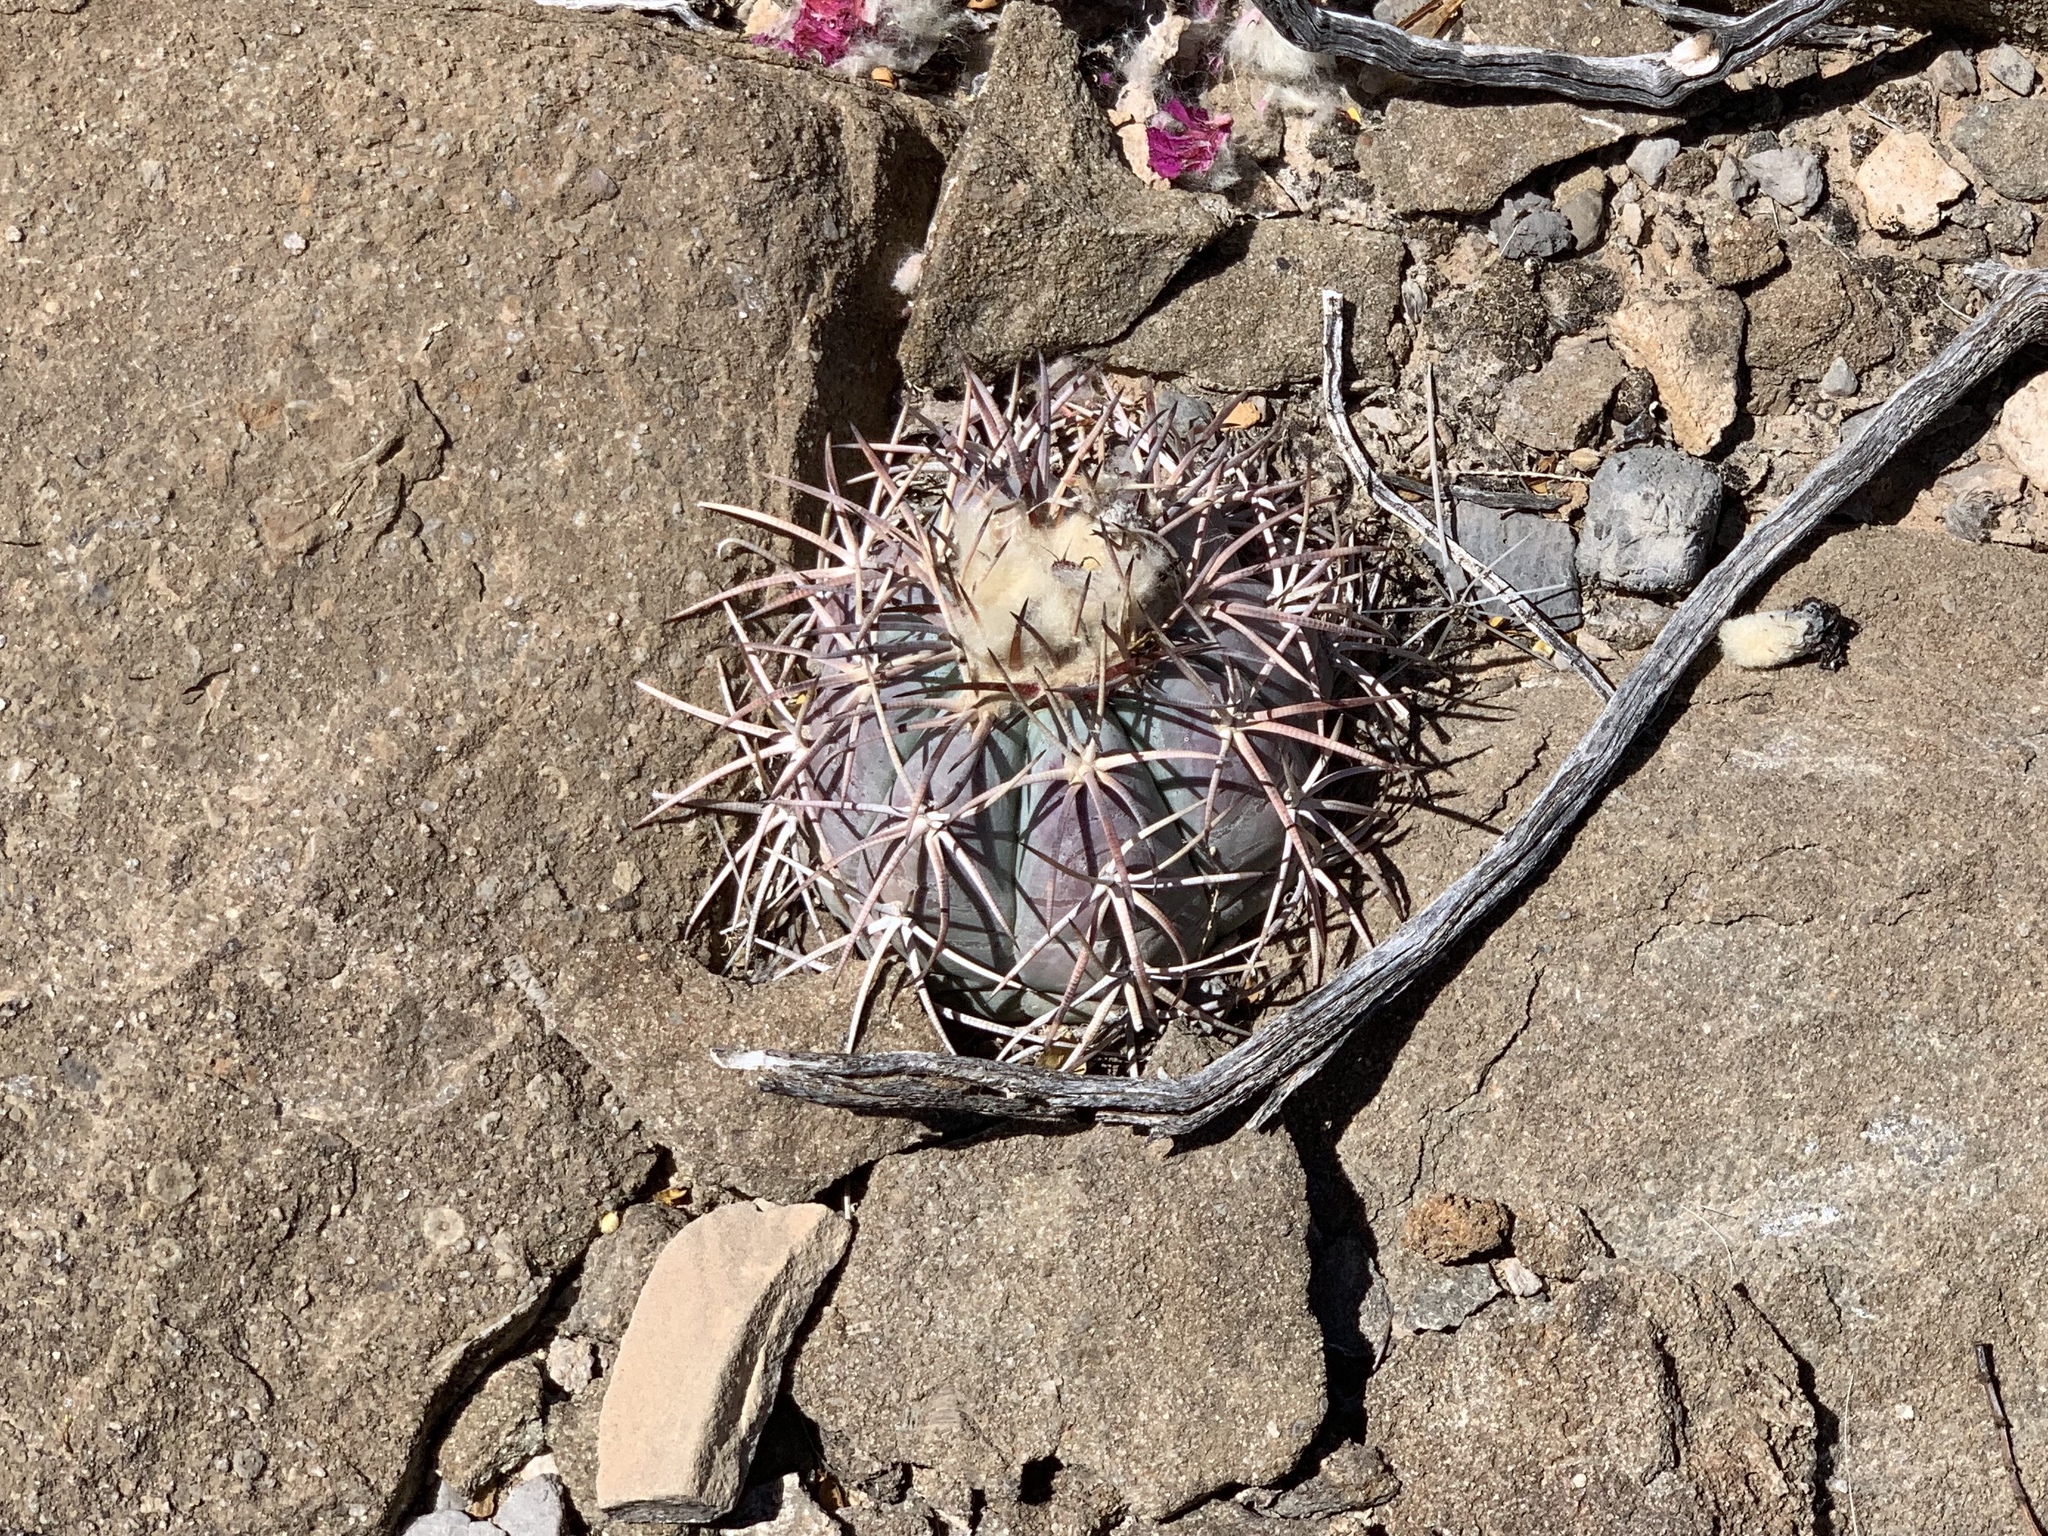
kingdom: Plantae
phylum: Tracheophyta
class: Magnoliopsida
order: Caryophyllales
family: Cactaceae
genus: Echinocactus
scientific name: Echinocactus horizonthalonius
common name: Devilshead
